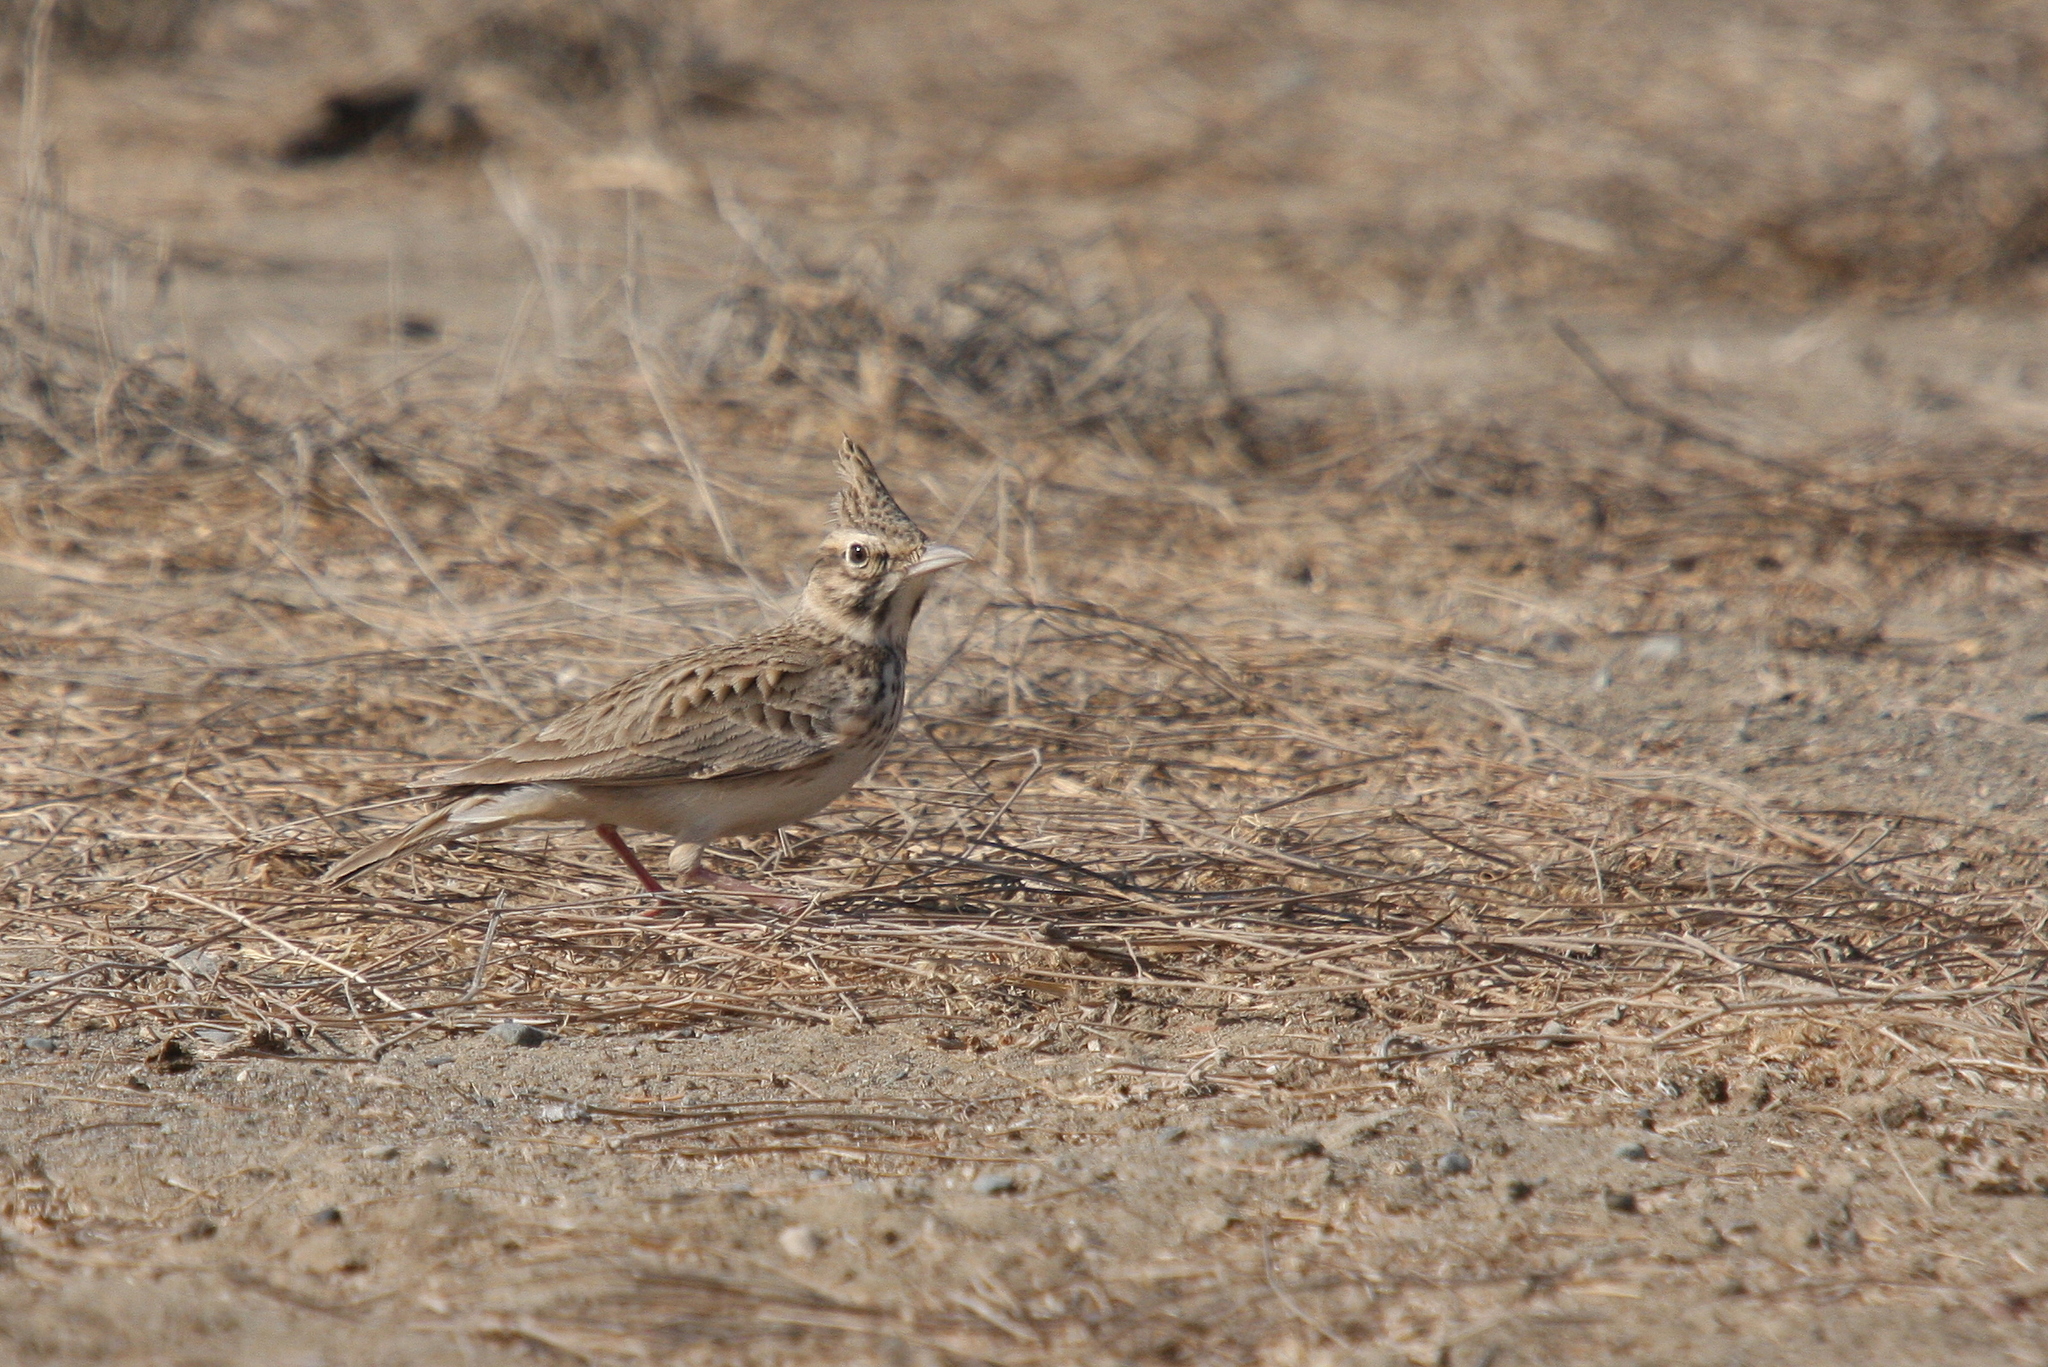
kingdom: Animalia
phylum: Chordata
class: Aves
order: Passeriformes
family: Alaudidae
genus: Galerida
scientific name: Galerida cristata
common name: Crested lark
